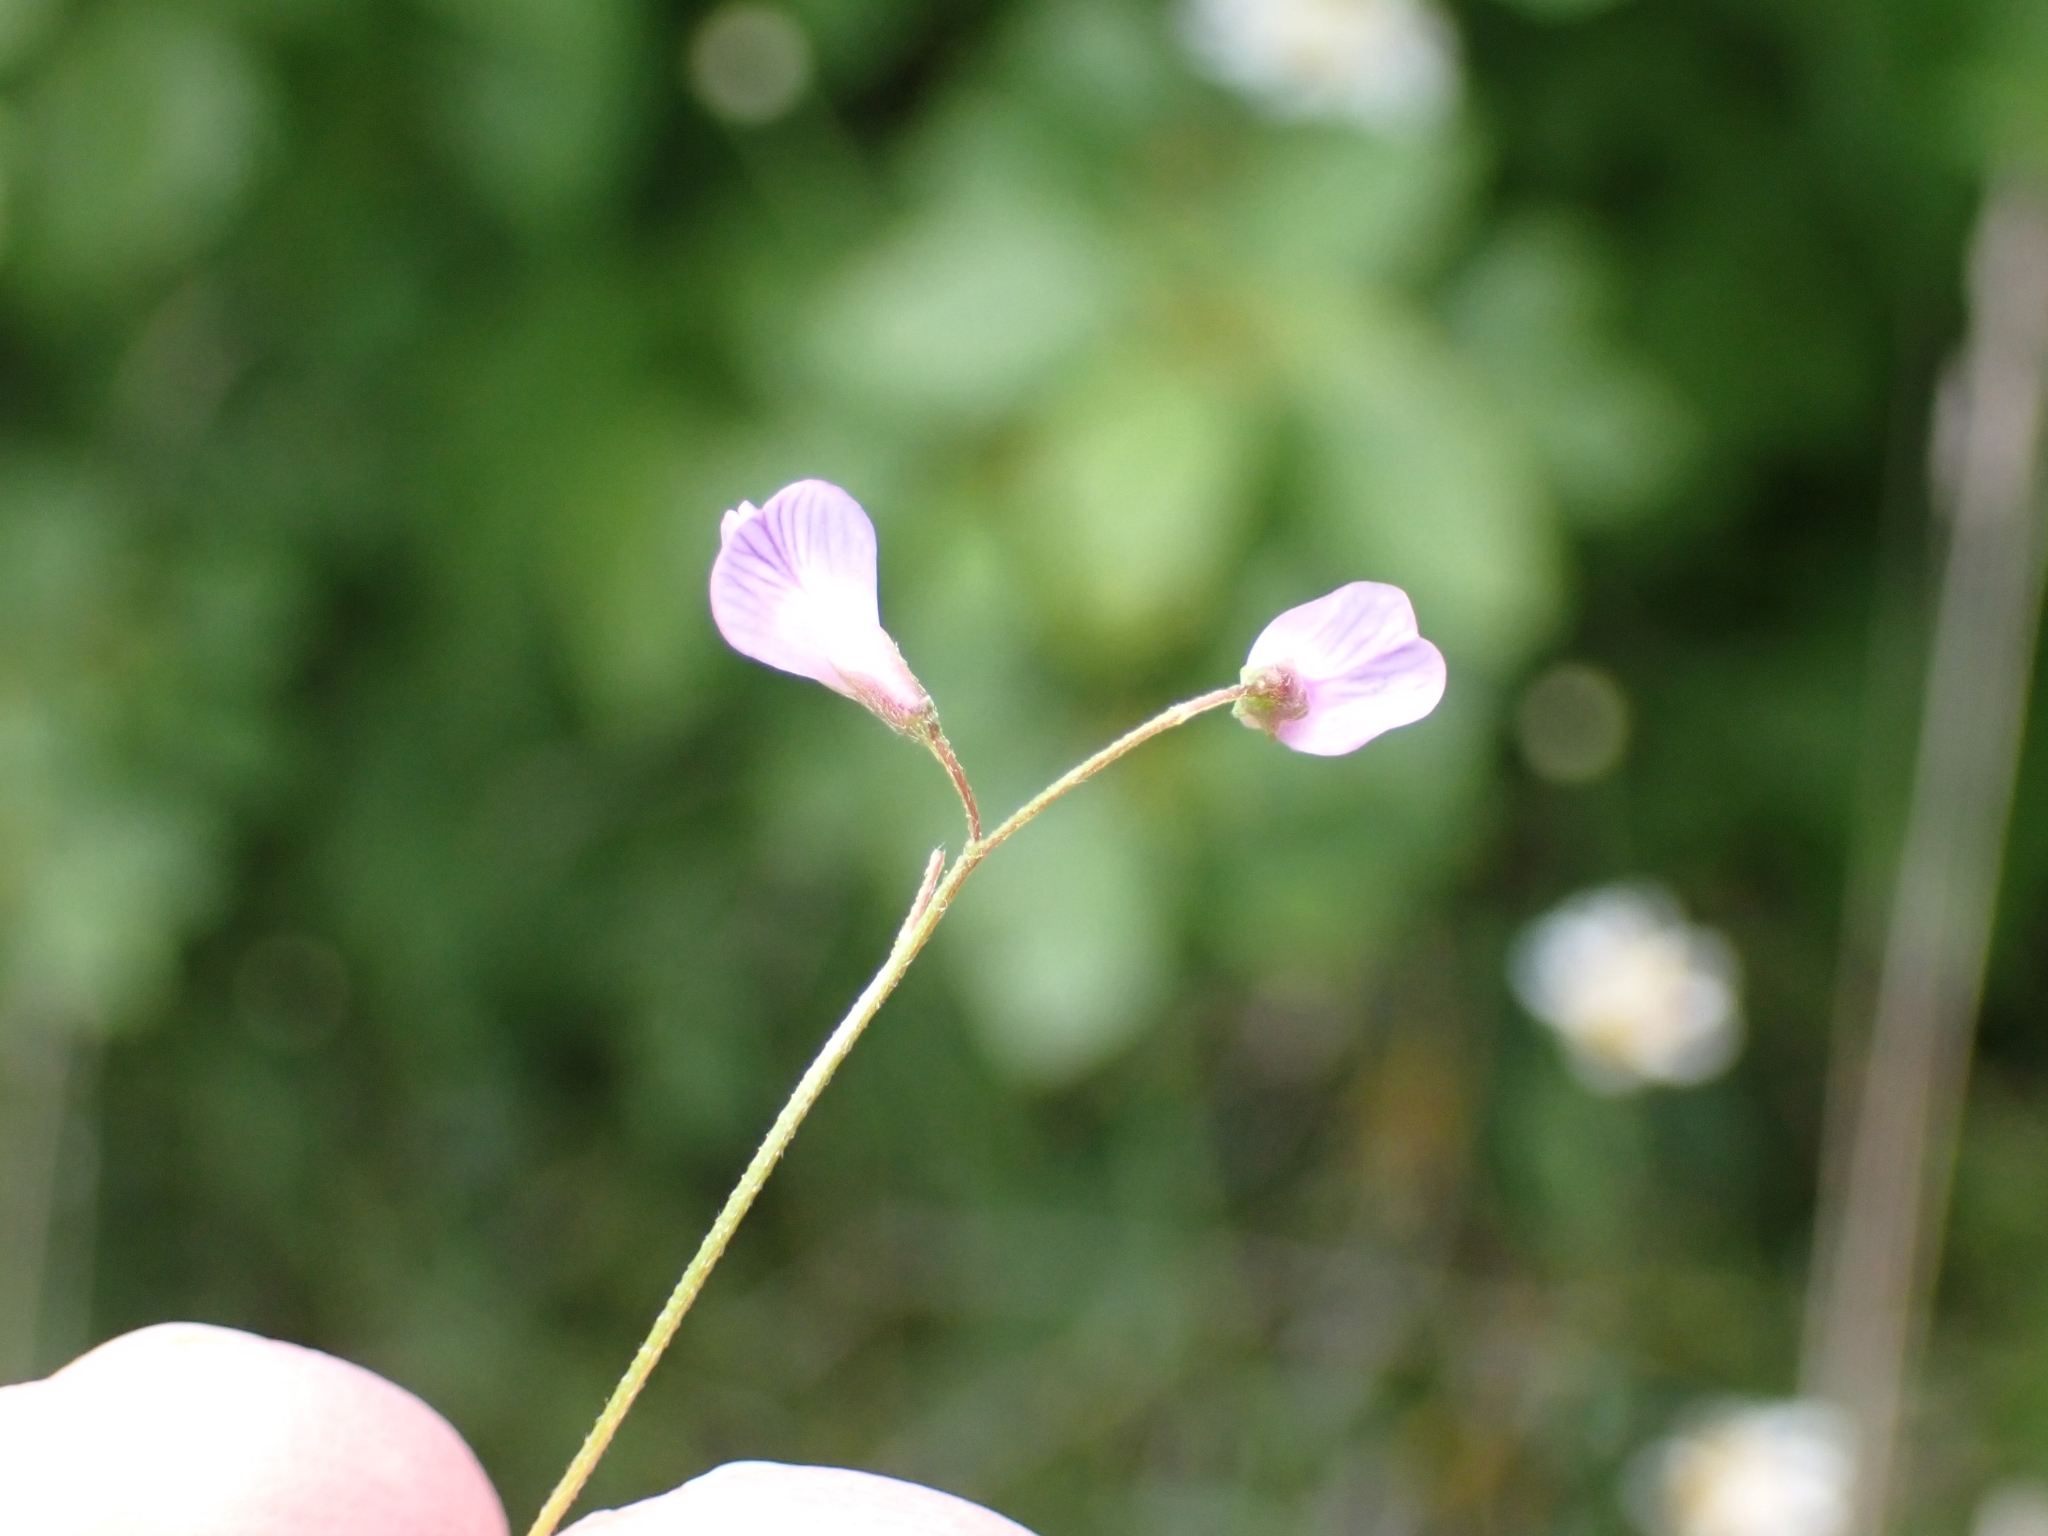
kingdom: Plantae
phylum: Tracheophyta
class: Magnoliopsida
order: Fabales
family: Fabaceae
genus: Vicia
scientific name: Vicia tetrasperma
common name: Smooth tare
